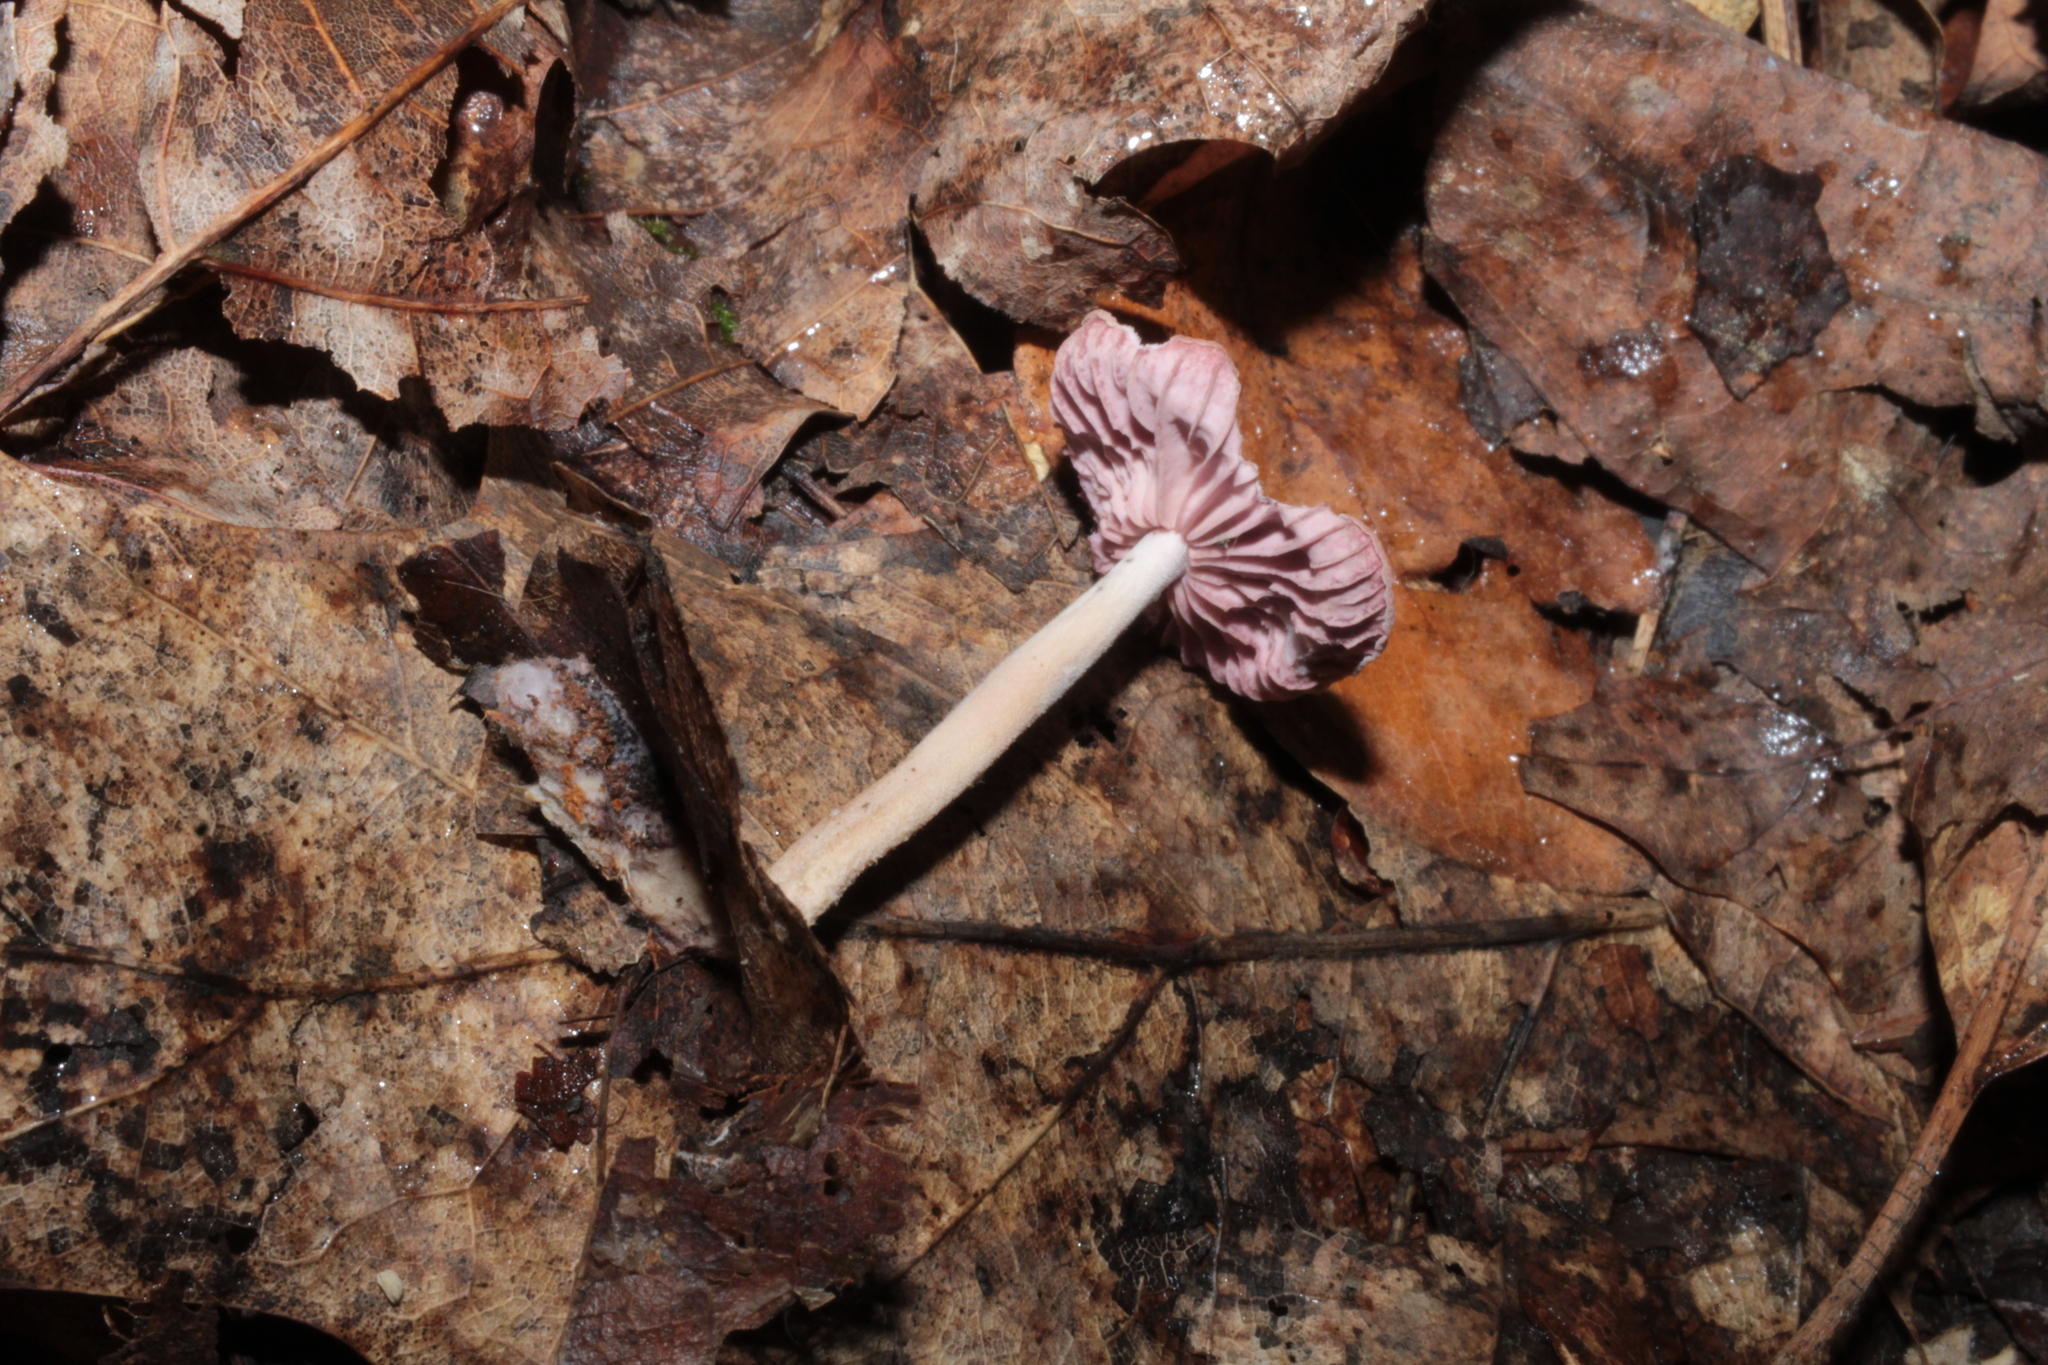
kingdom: Fungi
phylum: Basidiomycota
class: Agaricomycetes
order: Agaricales
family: Omphalotaceae
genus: Gymnopus
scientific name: Gymnopus iocephalus
